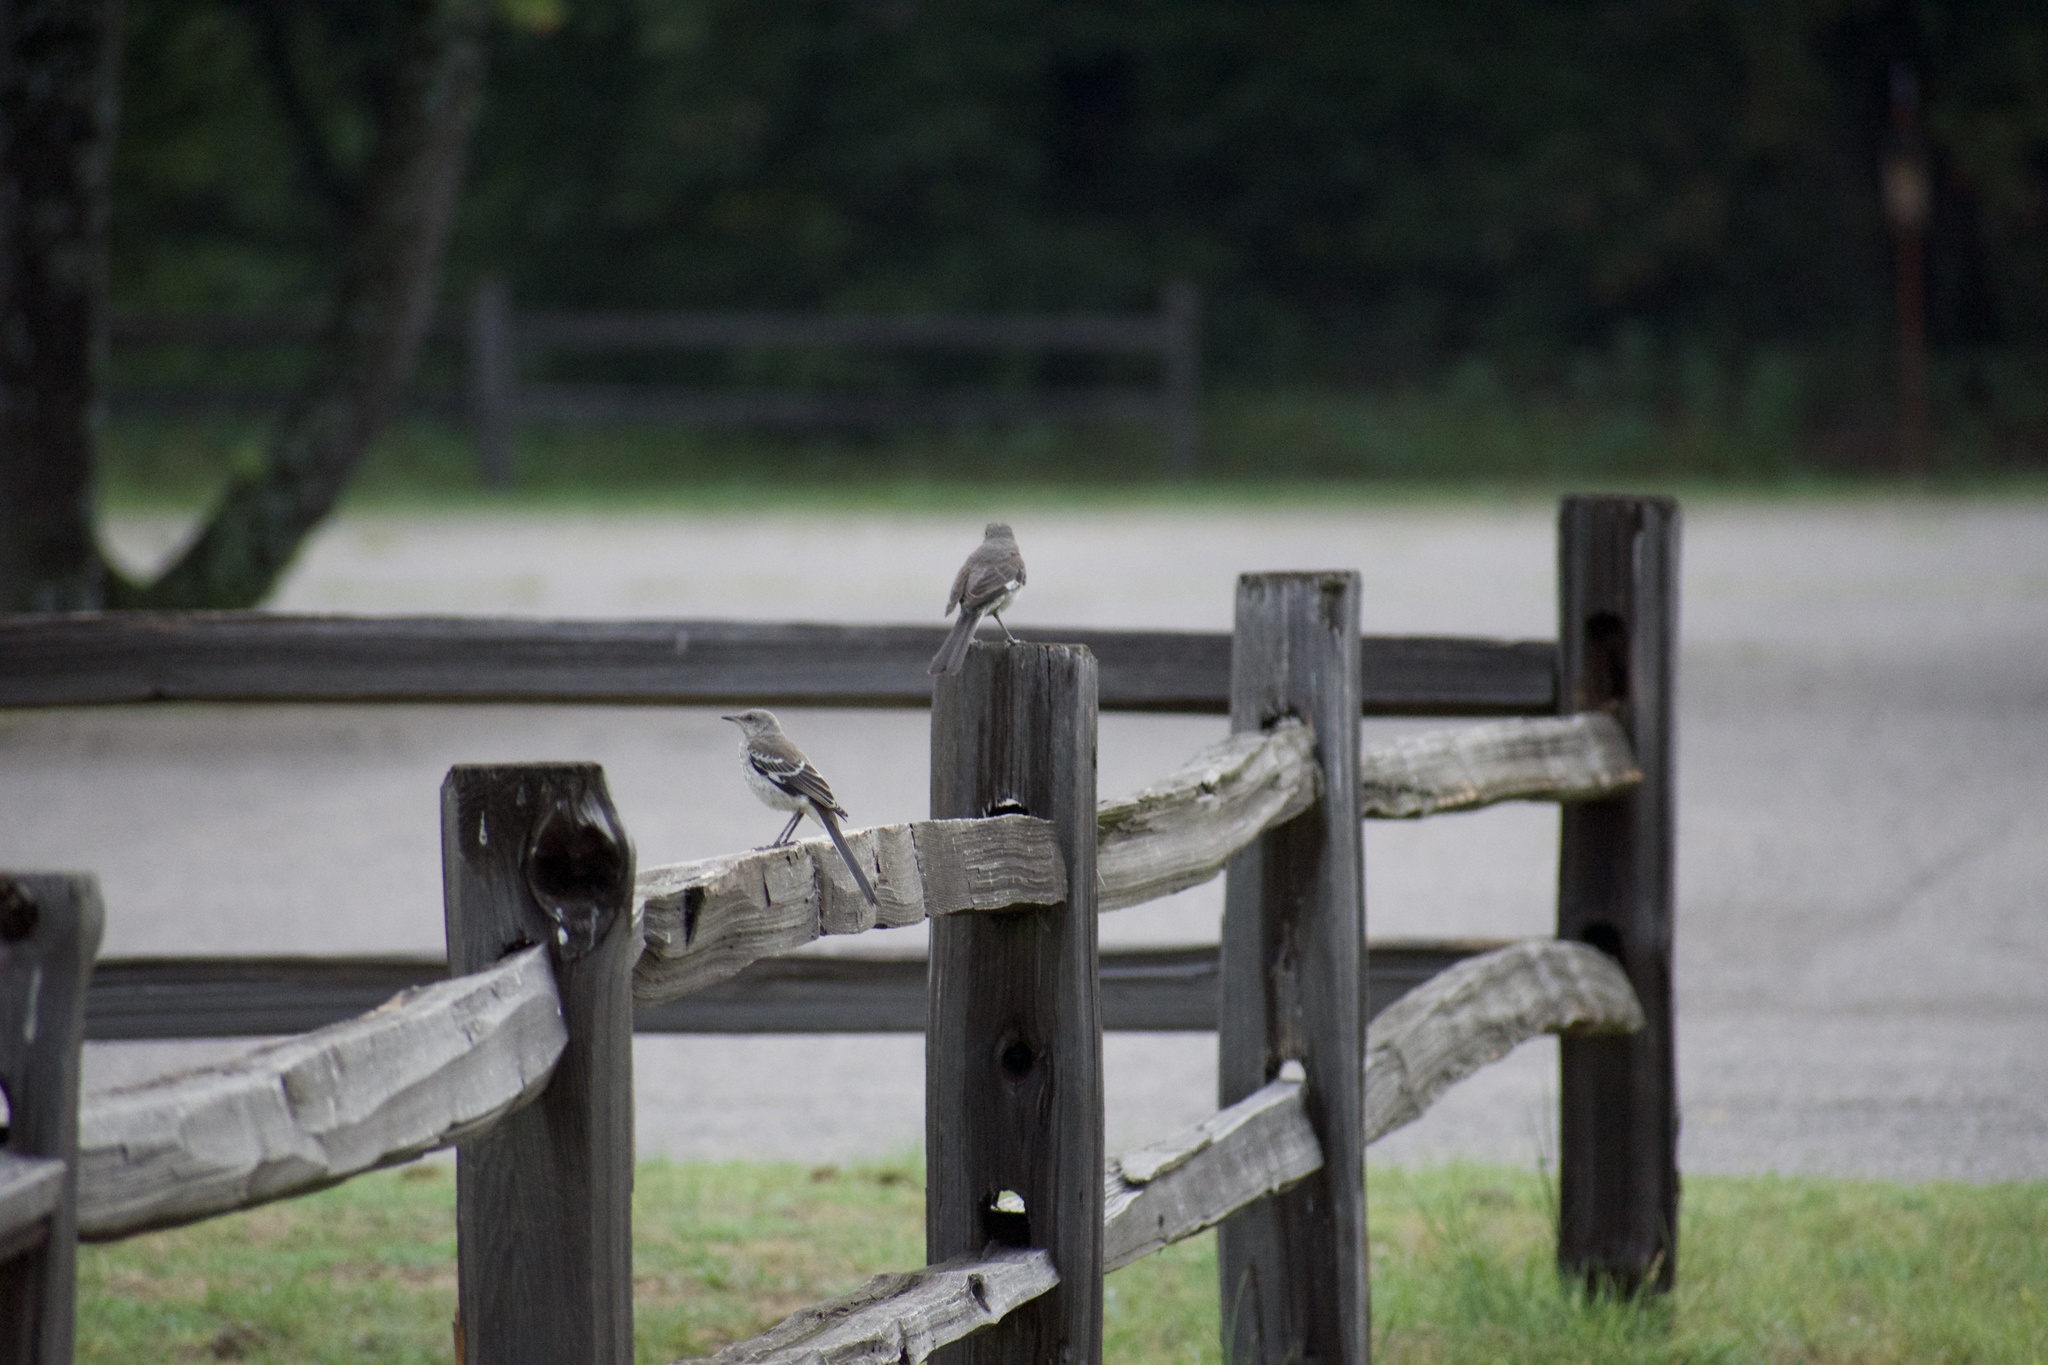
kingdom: Animalia
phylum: Chordata
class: Aves
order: Passeriformes
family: Mimidae
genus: Mimus
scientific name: Mimus polyglottos
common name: Northern mockingbird
